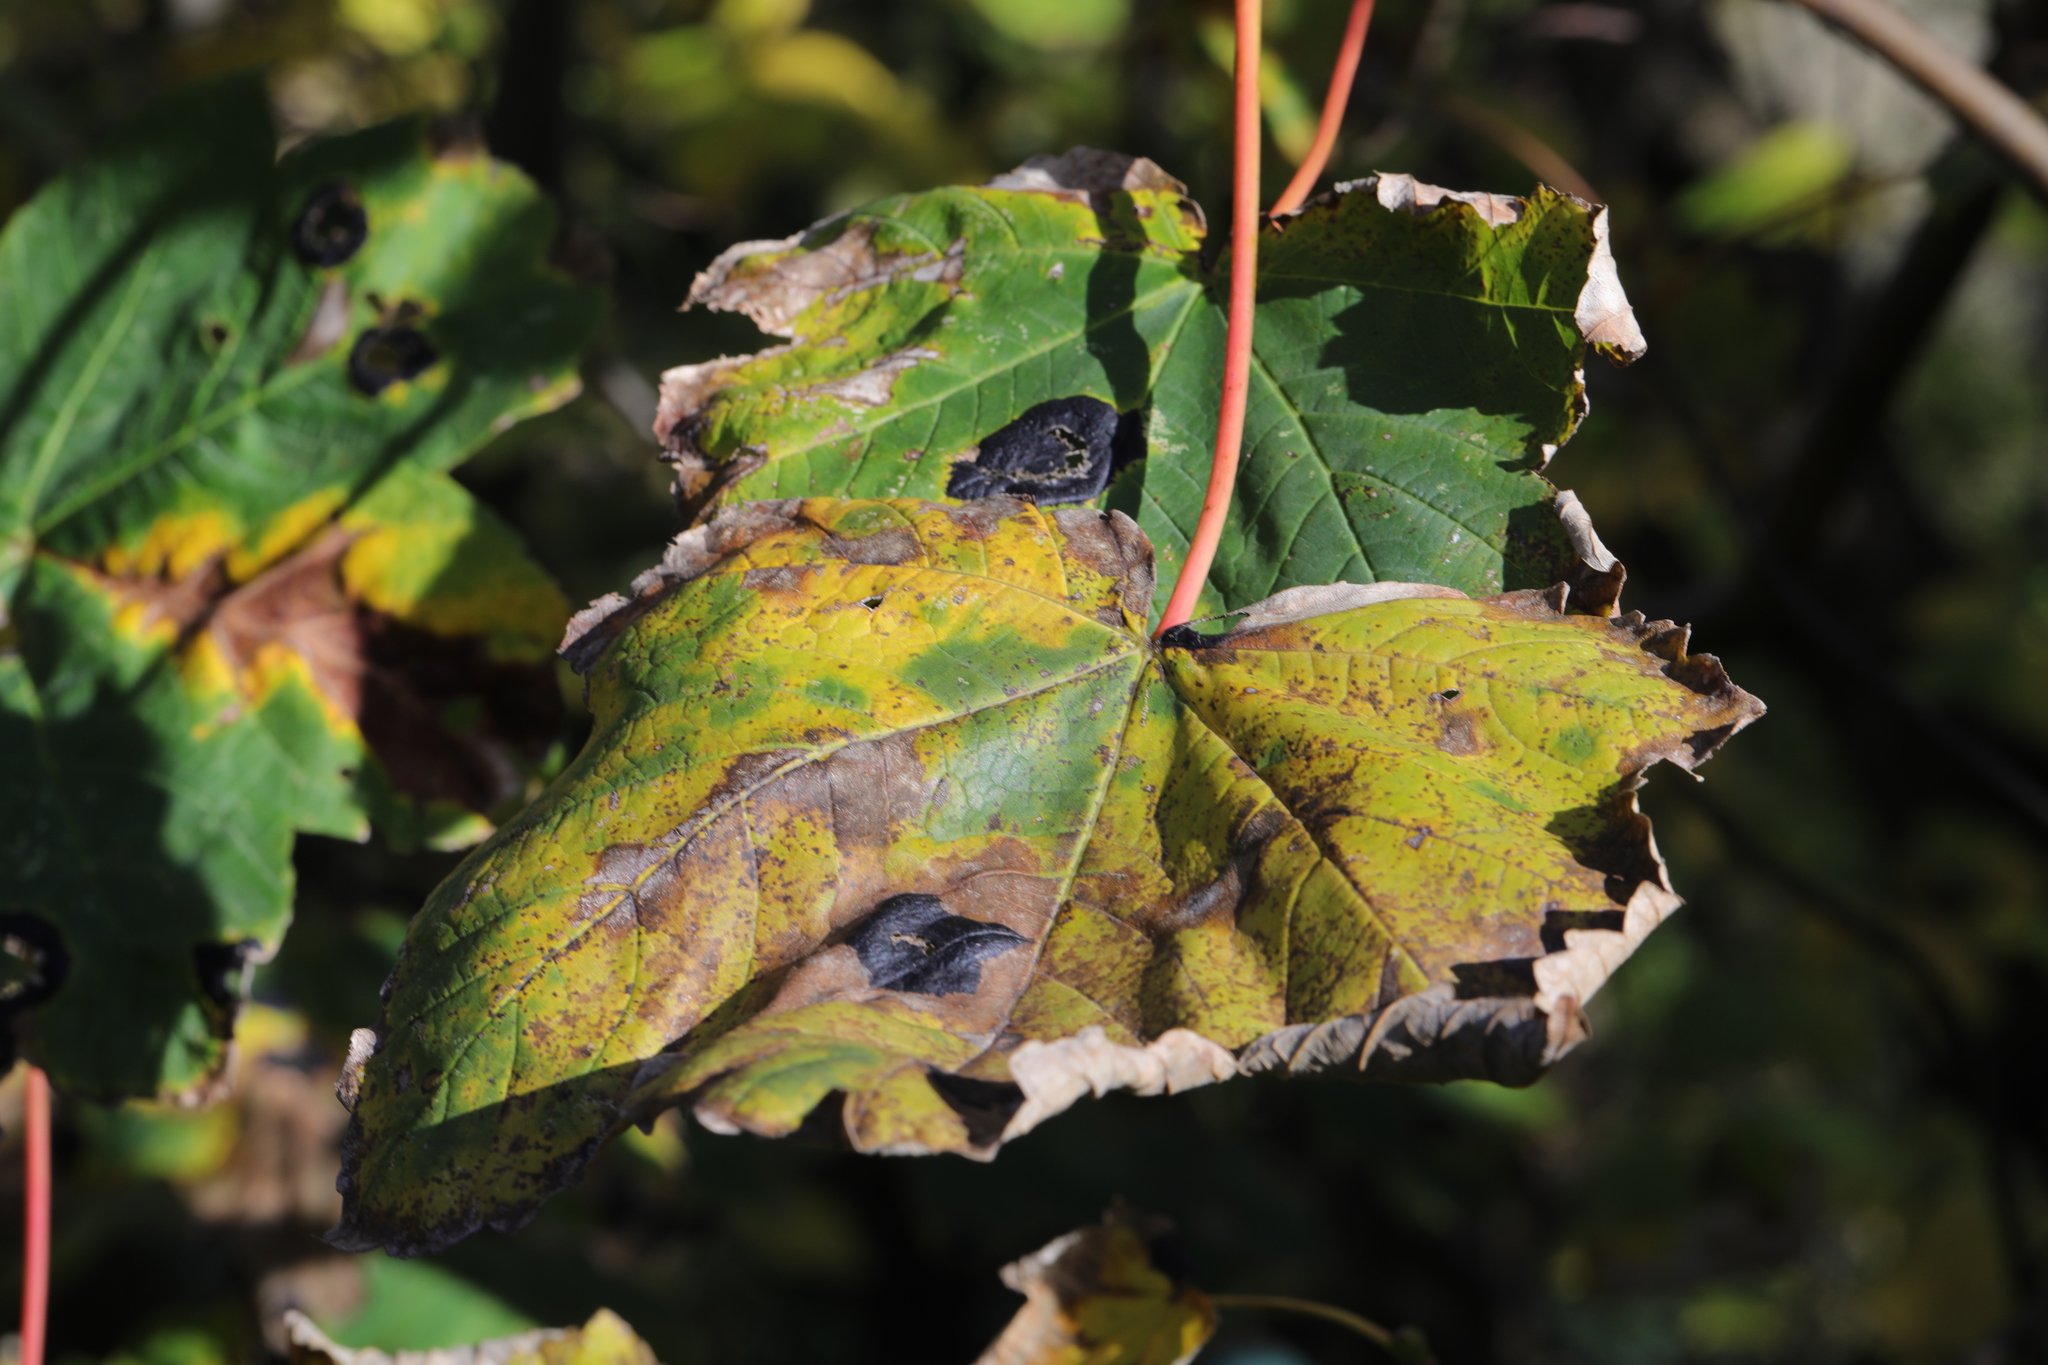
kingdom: Fungi
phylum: Ascomycota
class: Leotiomycetes
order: Rhytismatales
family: Rhytismataceae
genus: Rhytisma
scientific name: Rhytisma acerinum
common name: European tar spot
